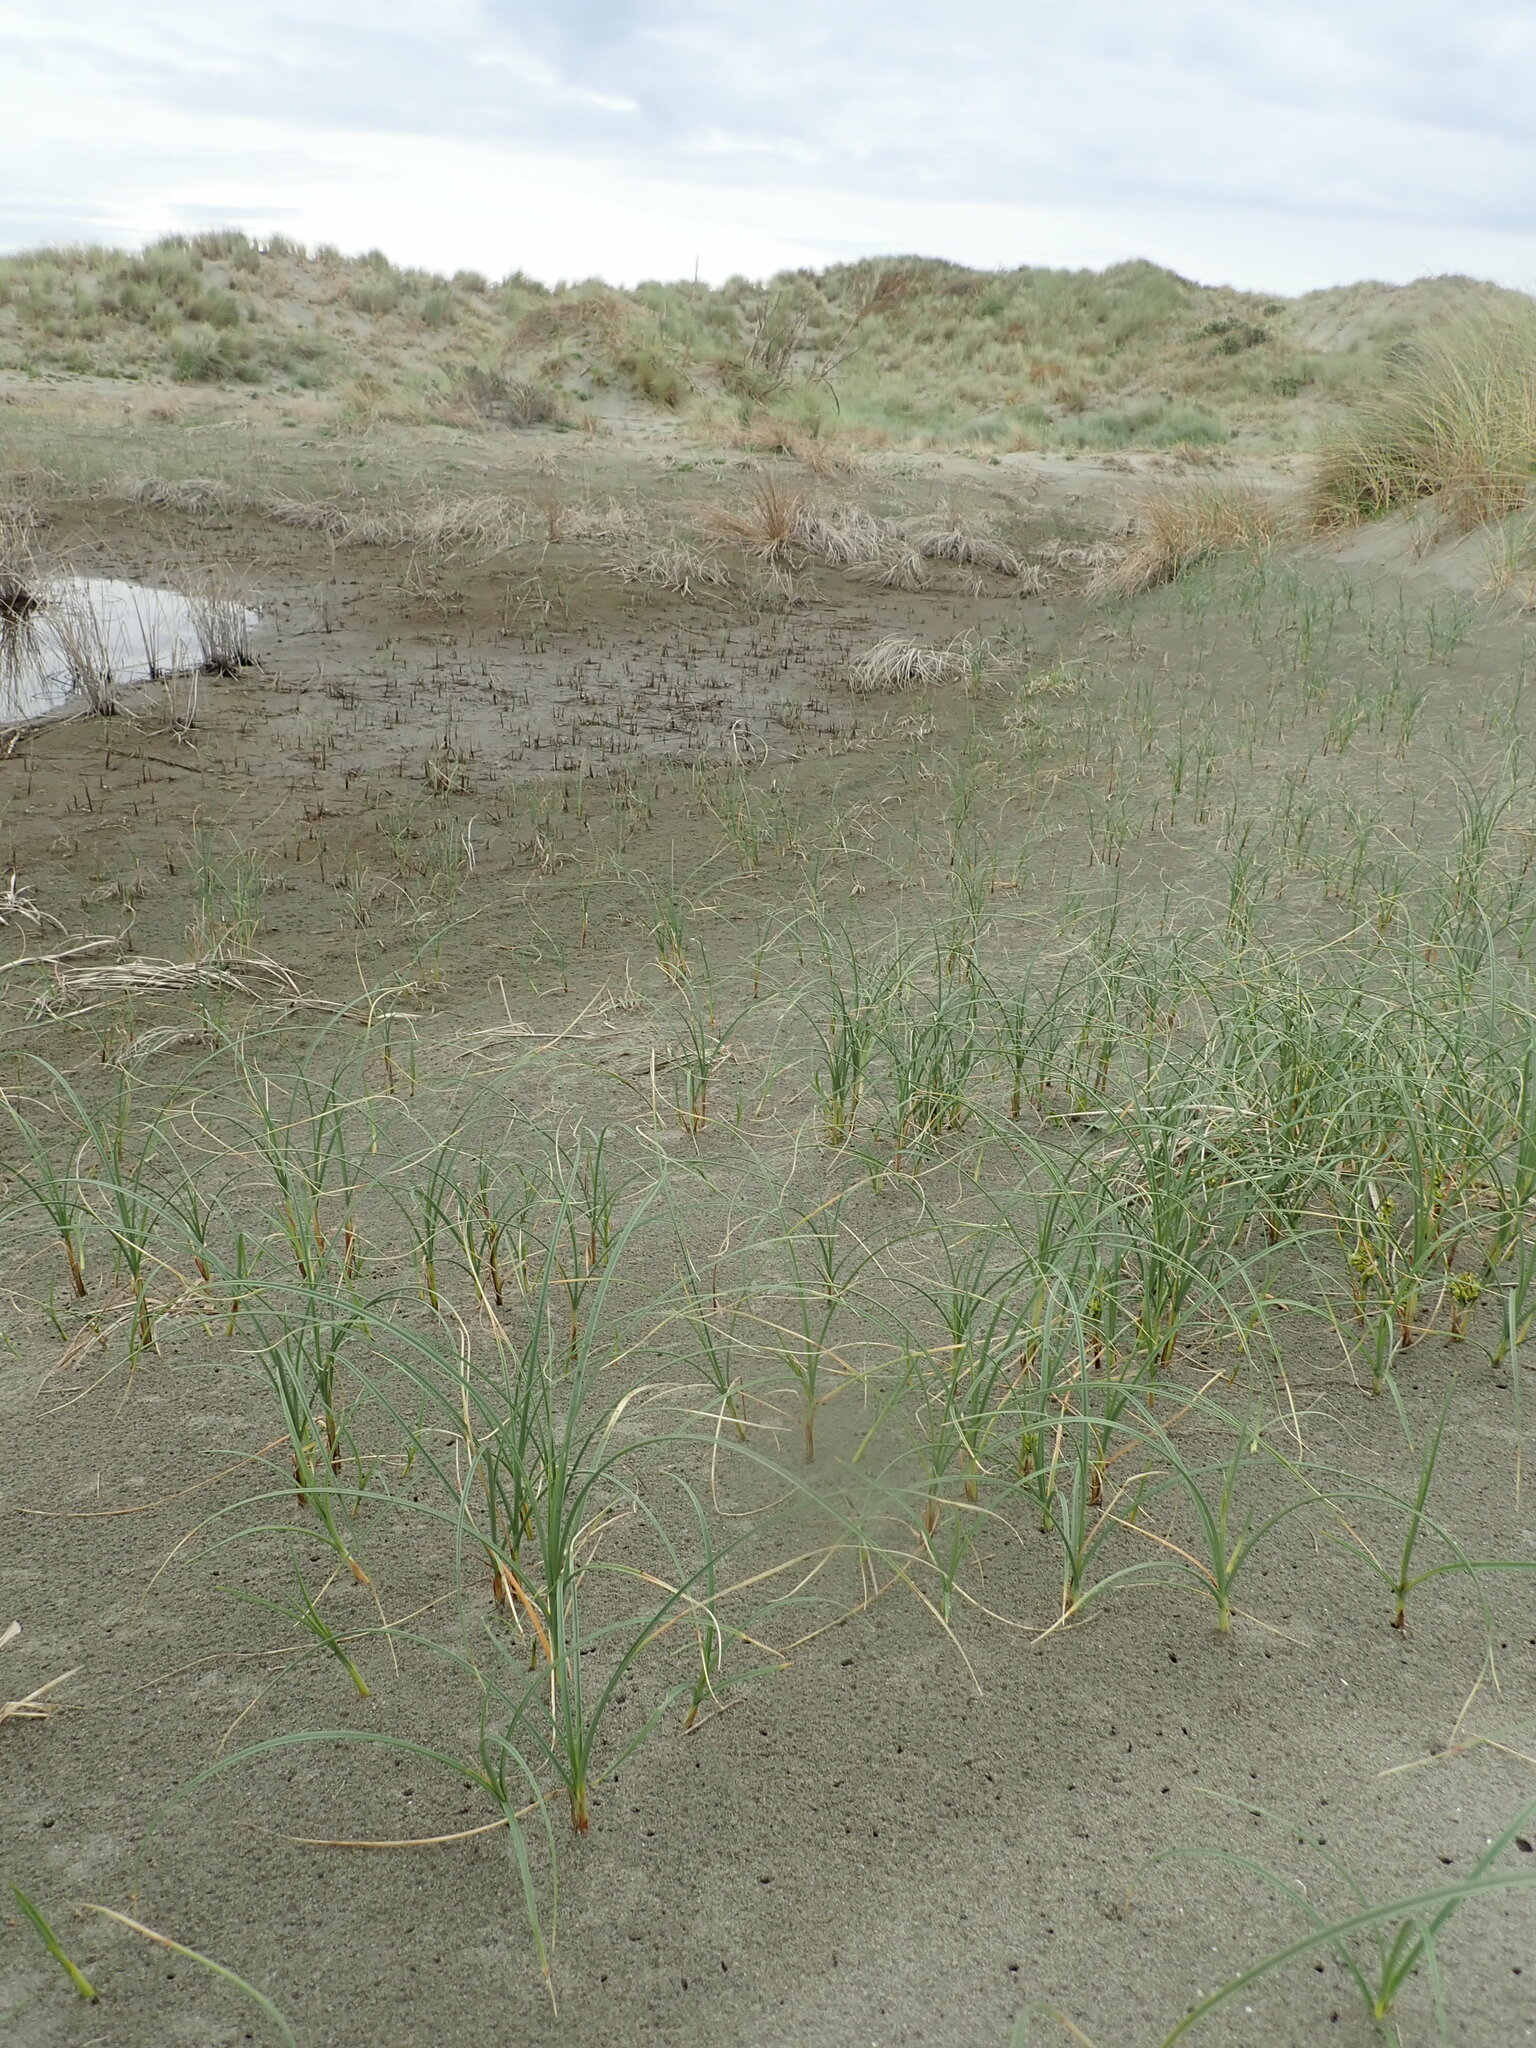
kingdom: Plantae
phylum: Tracheophyta
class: Liliopsida
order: Poales
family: Cyperaceae
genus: Carex
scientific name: Carex pumila
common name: Dwarf sedge
